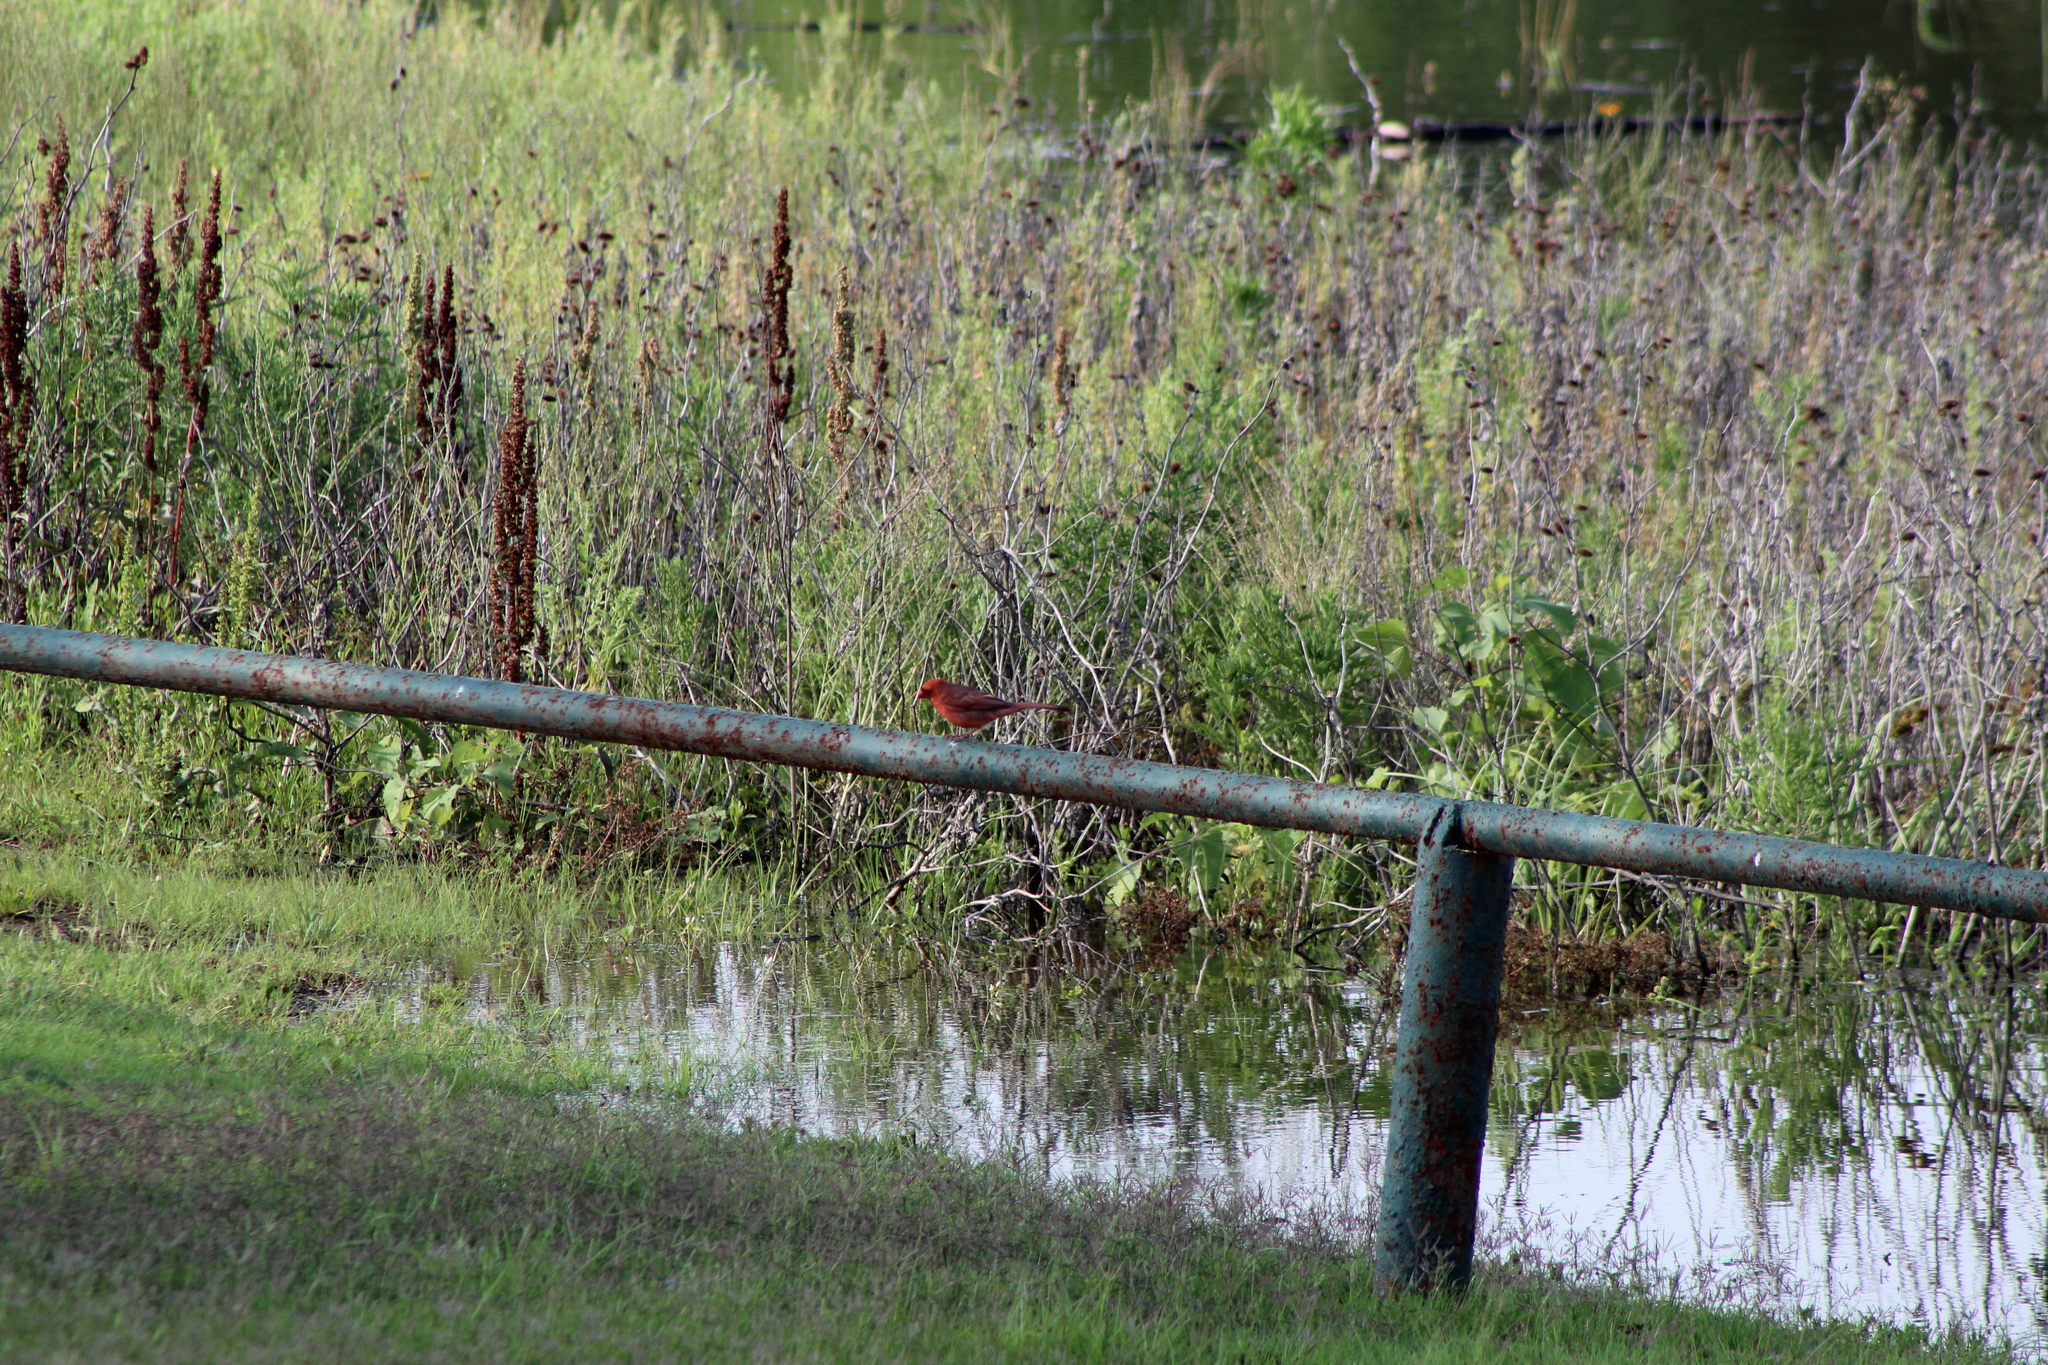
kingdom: Animalia
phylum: Chordata
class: Aves
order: Passeriformes
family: Cardinalidae
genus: Cardinalis
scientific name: Cardinalis cardinalis
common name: Northern cardinal
